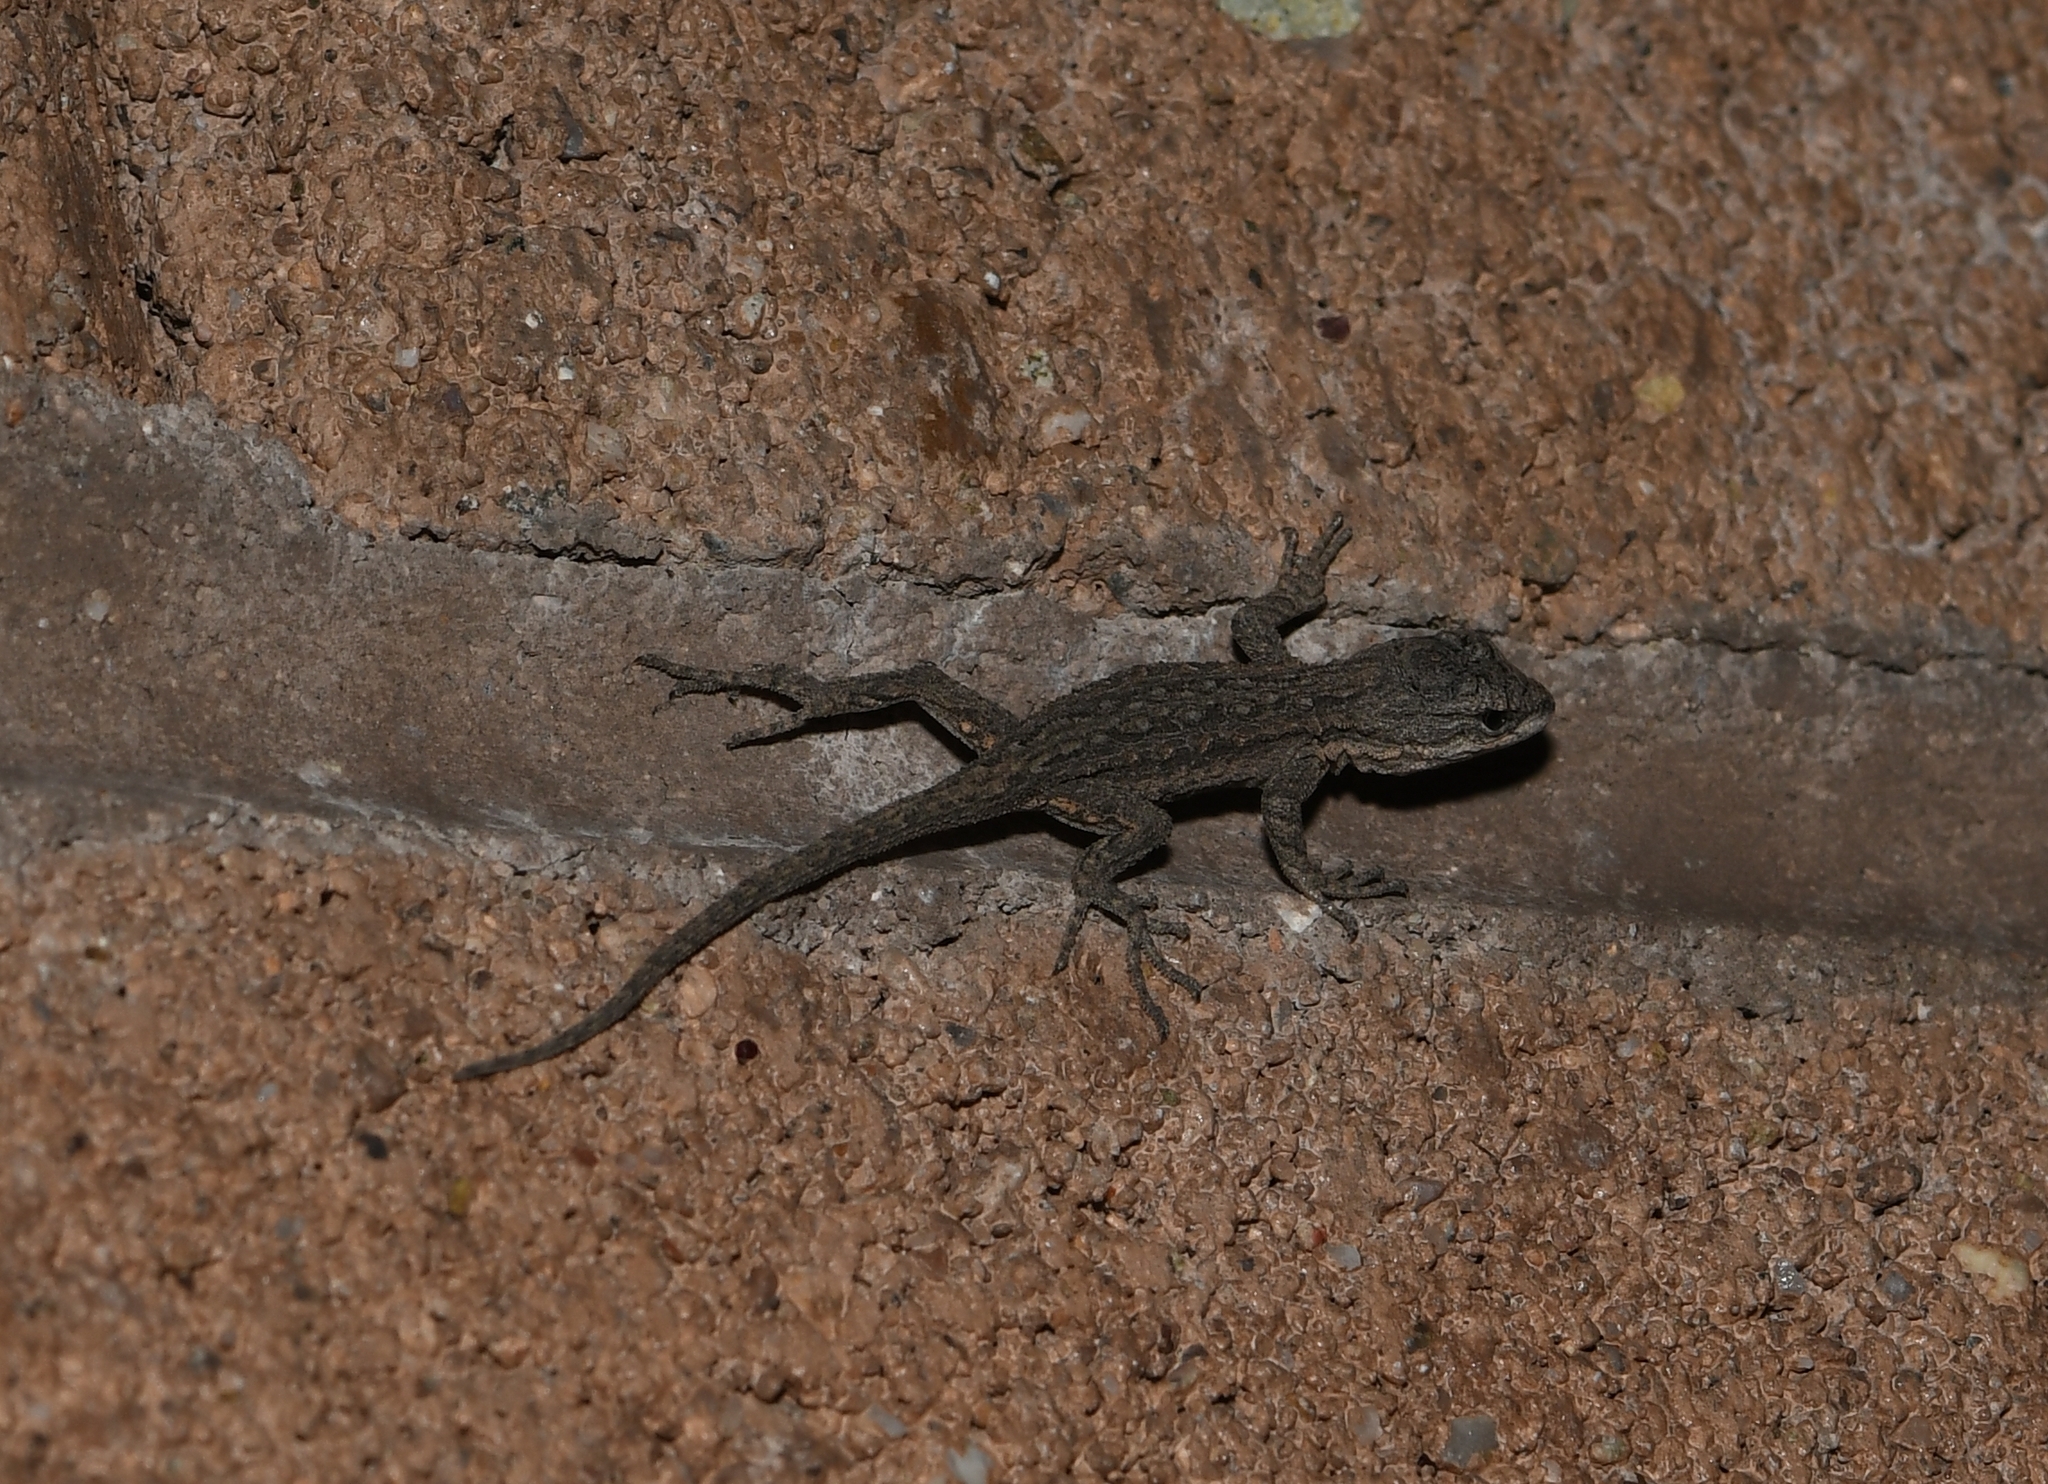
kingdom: Animalia
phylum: Chordata
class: Squamata
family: Phrynosomatidae
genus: Urosaurus
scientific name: Urosaurus ornatus
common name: Ornate tree lizard
